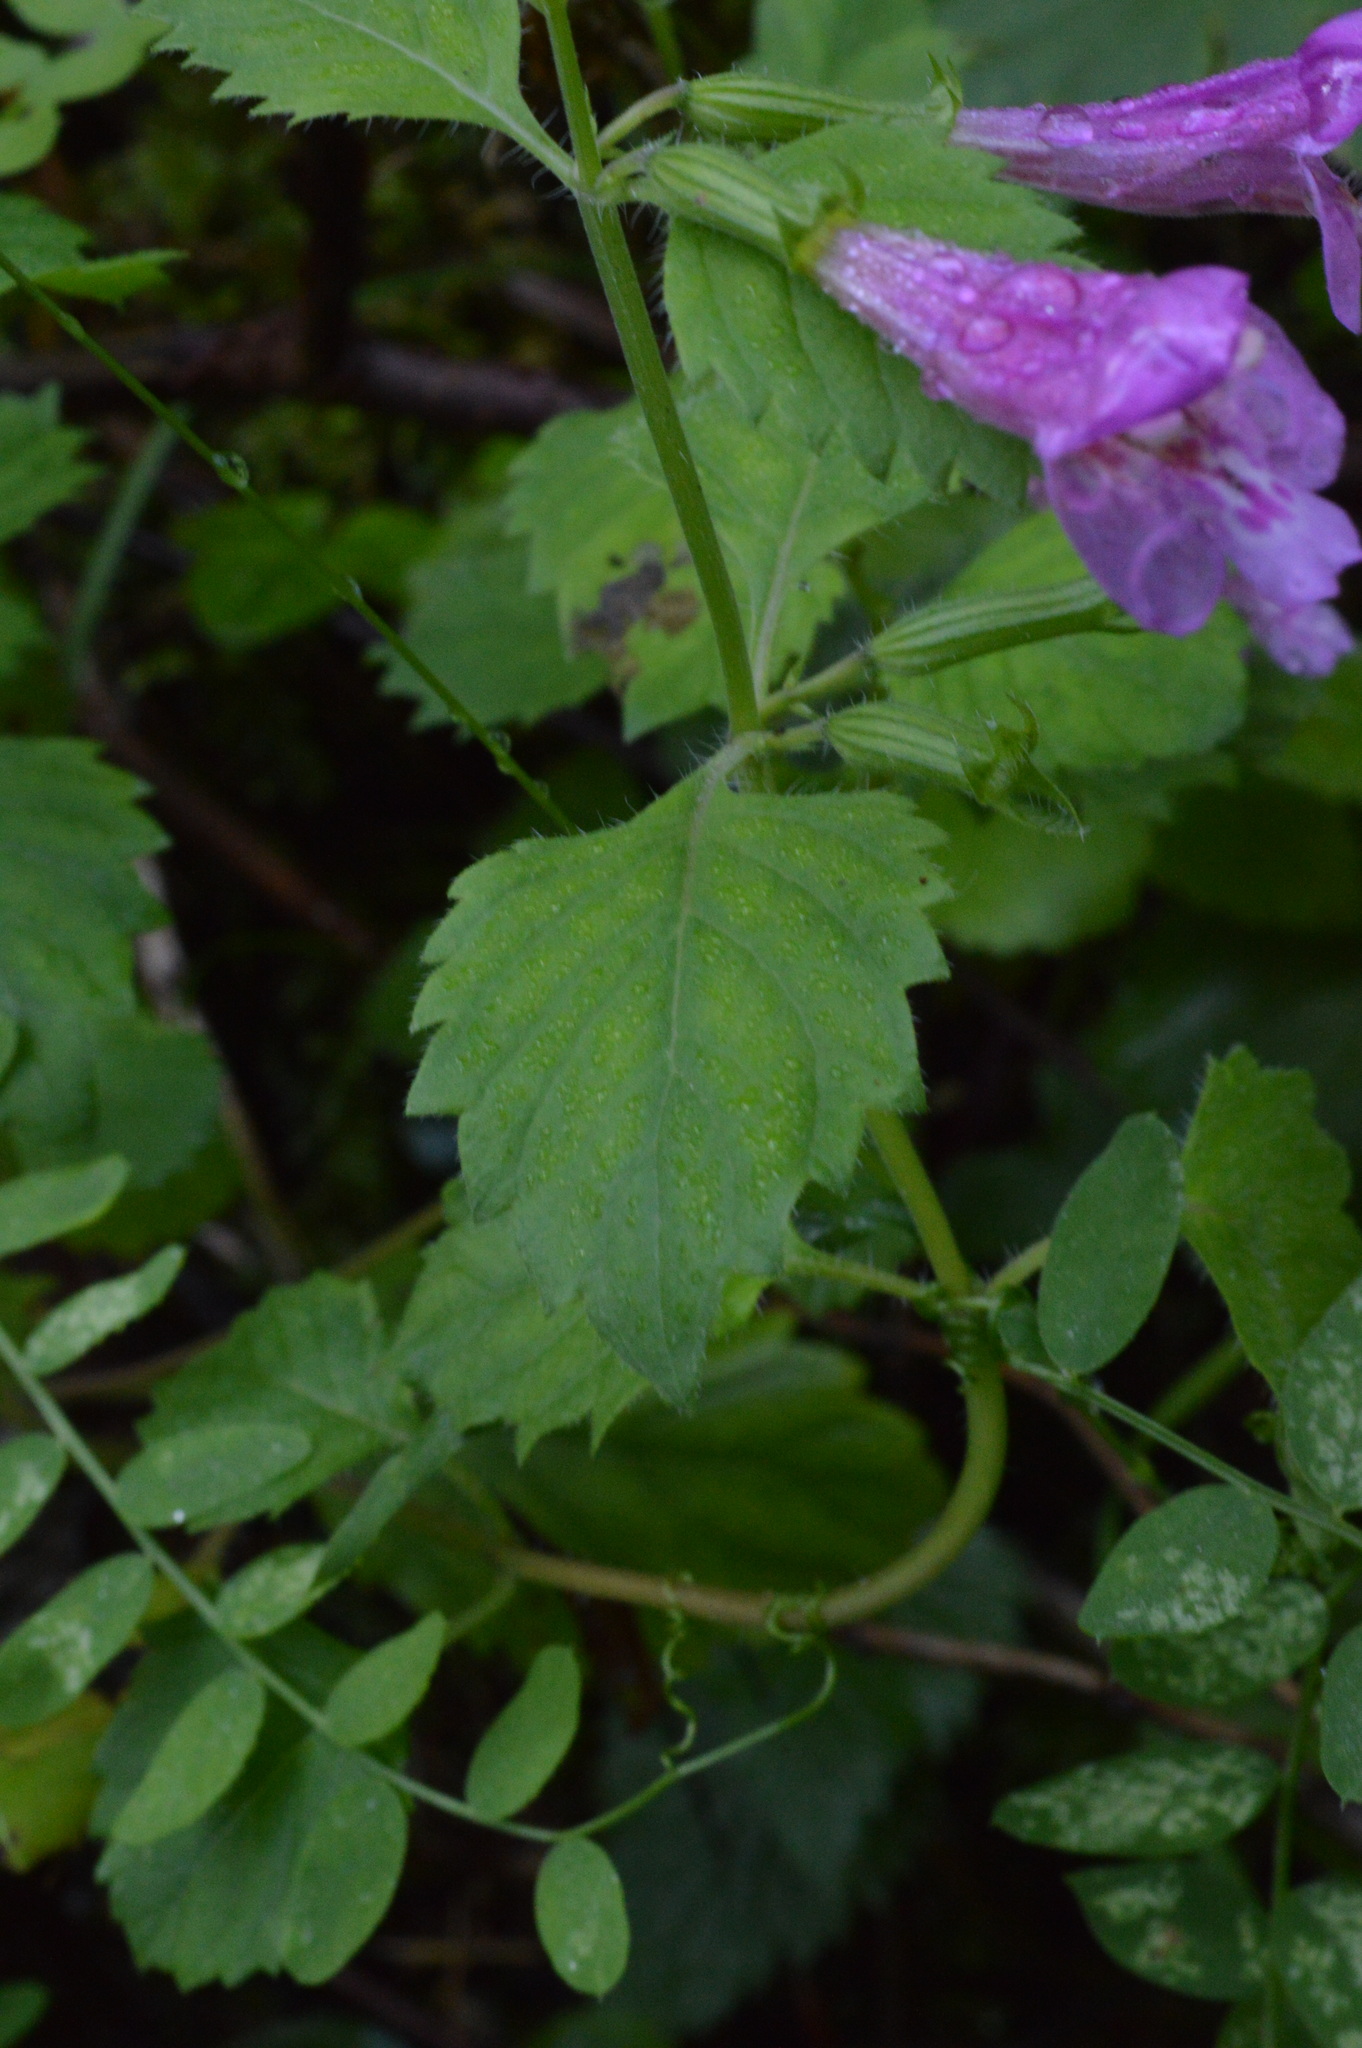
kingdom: Plantae
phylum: Tracheophyta
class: Magnoliopsida
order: Lamiales
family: Lamiaceae
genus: Clinopodium
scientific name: Clinopodium grandiflorum
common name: Greater calamint
